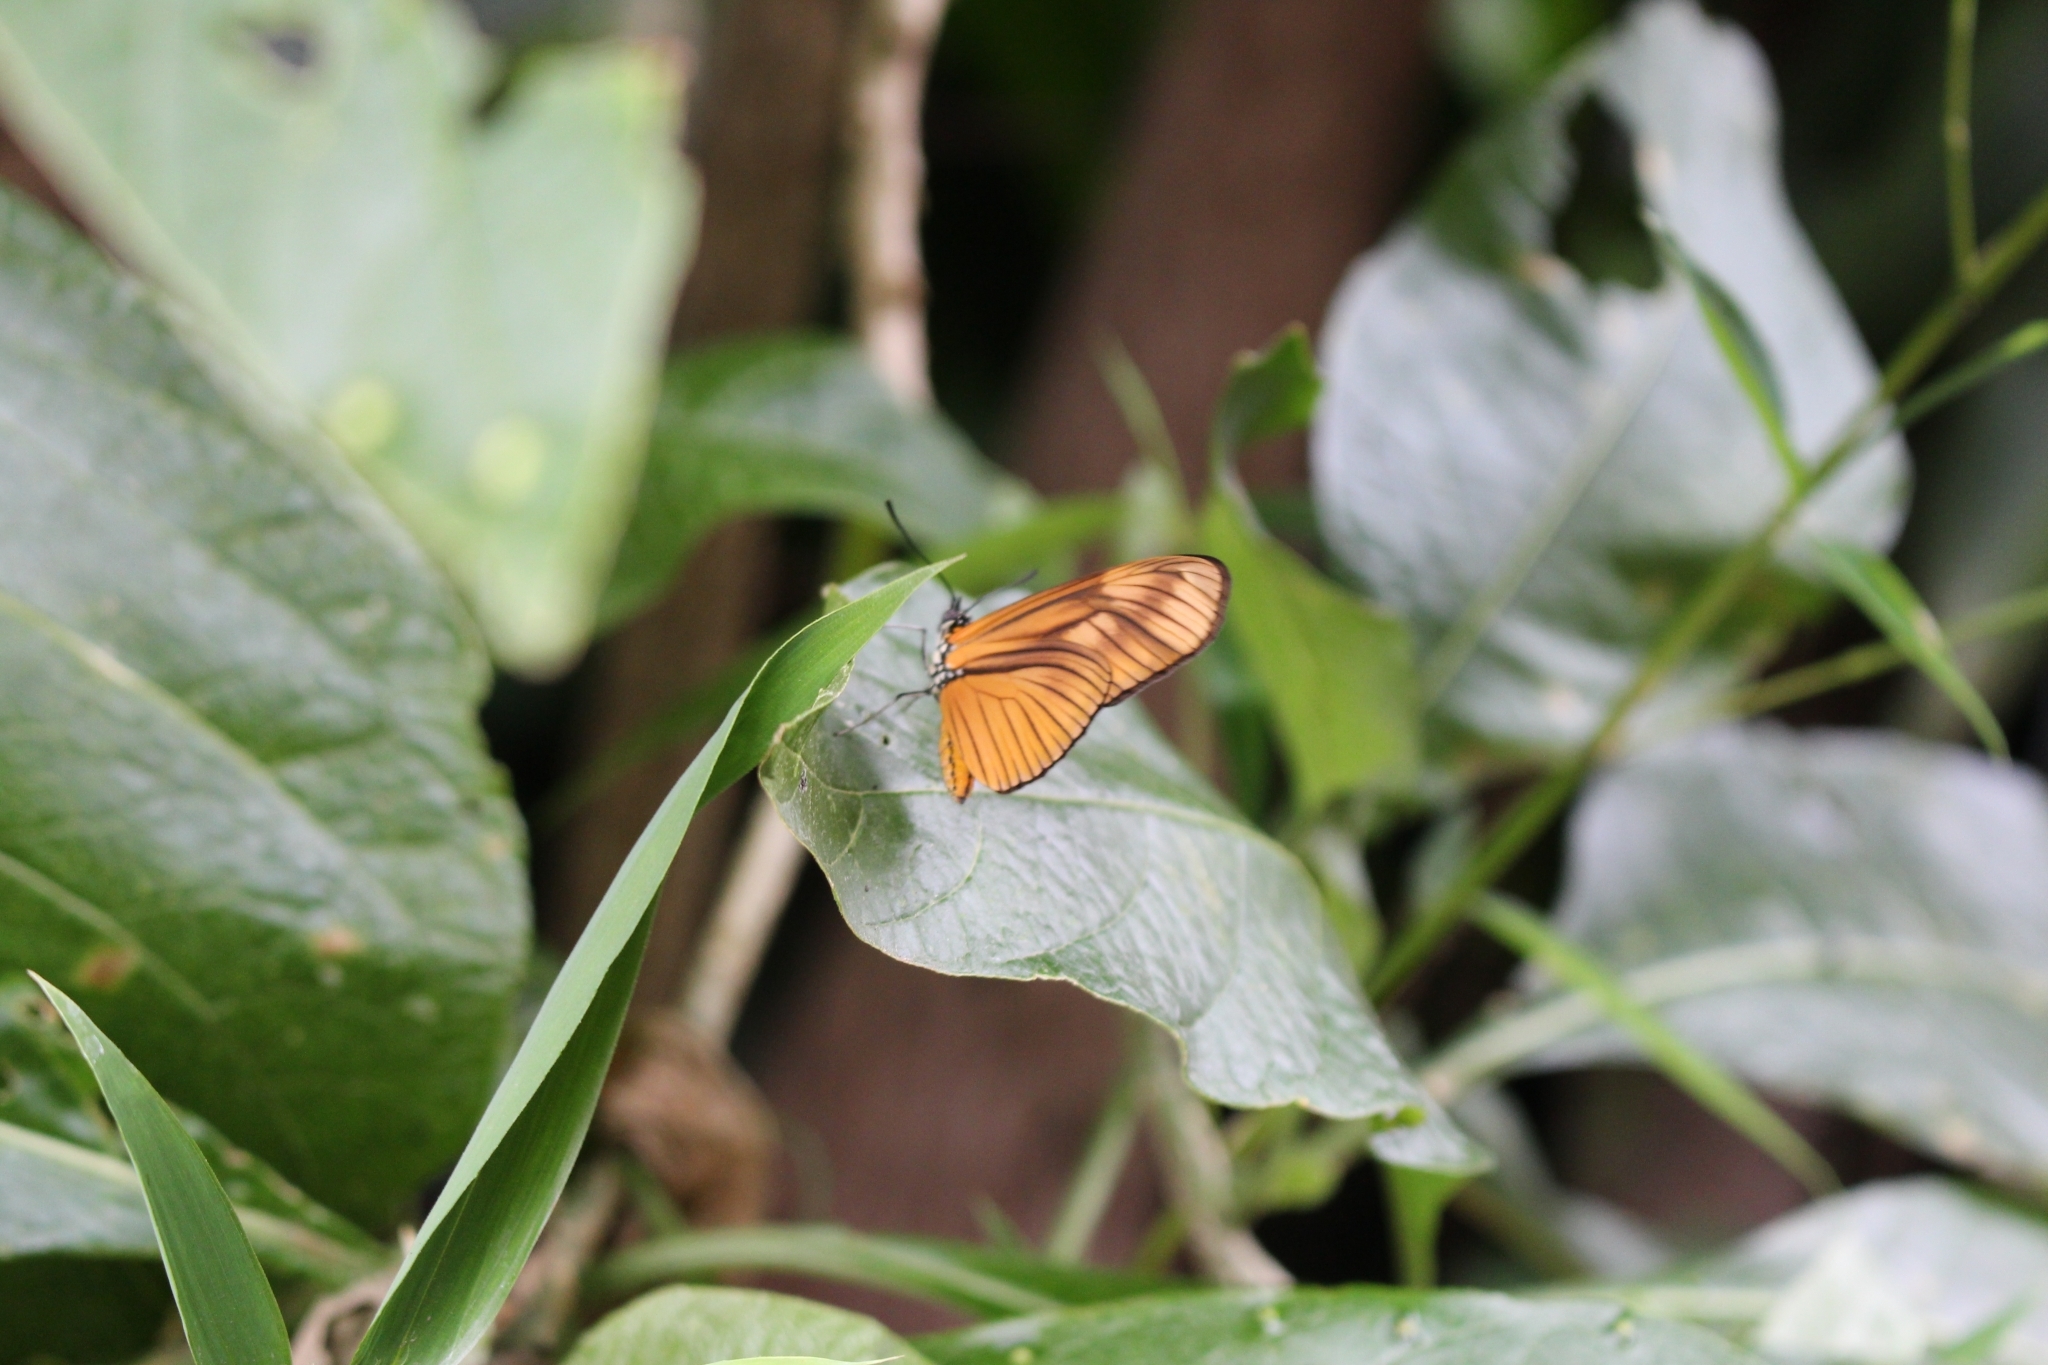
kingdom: Animalia
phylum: Arthropoda
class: Insecta
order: Lepidoptera
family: Nymphalidae
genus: Heliconius
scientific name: Heliconius aliphera
